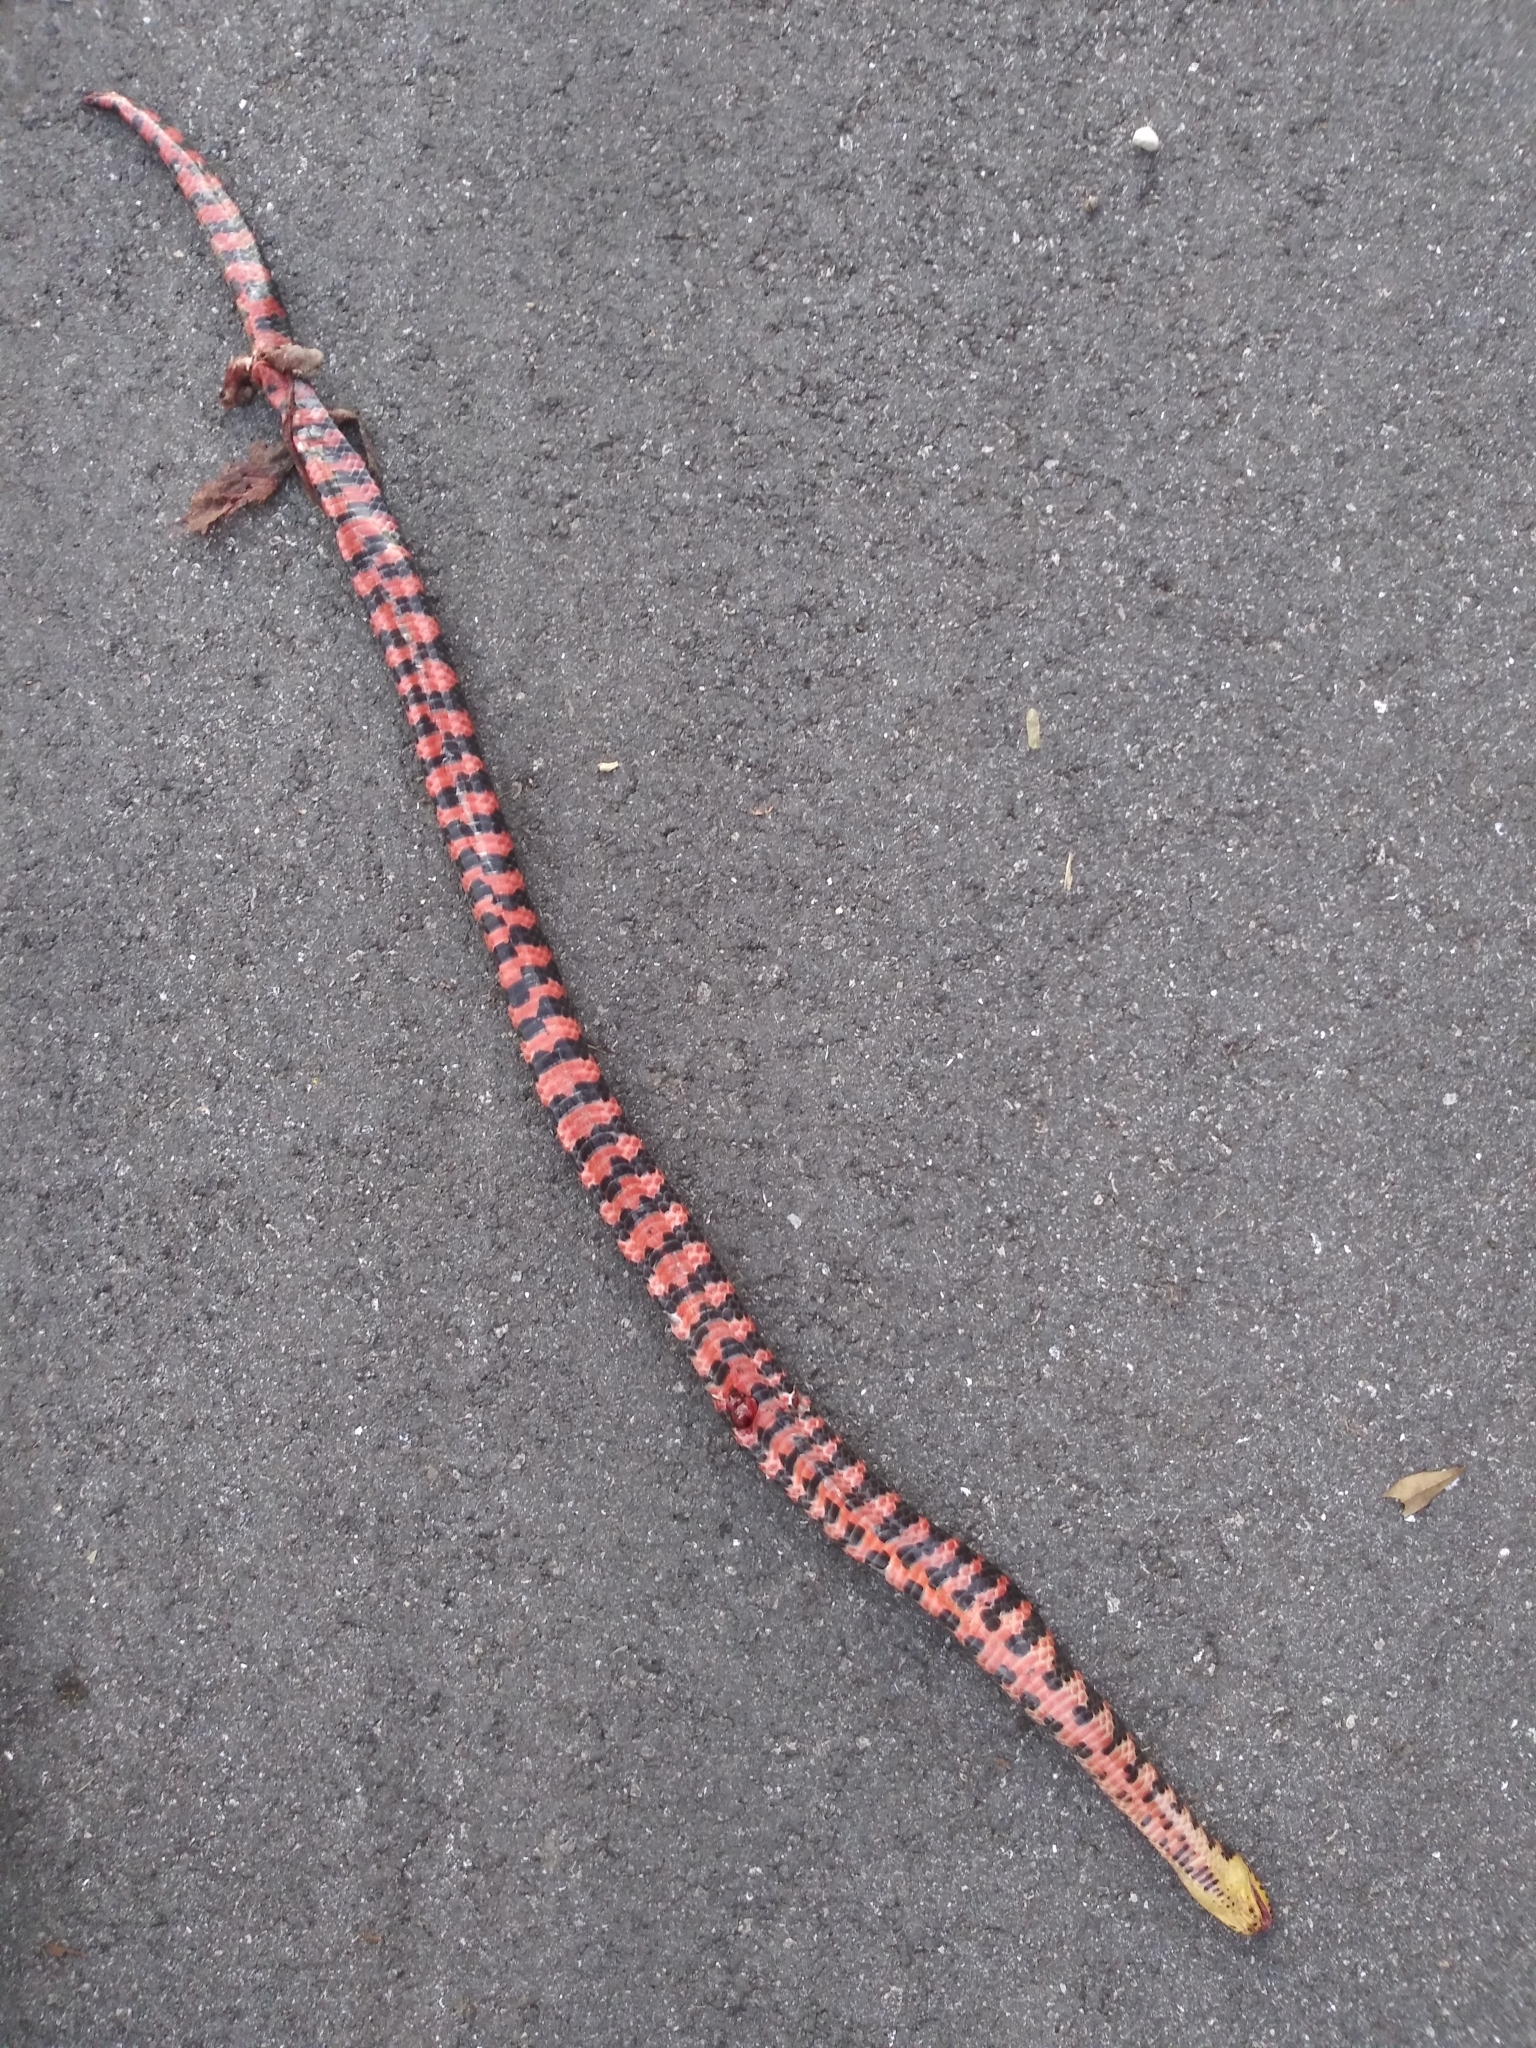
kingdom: Animalia
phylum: Chordata
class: Squamata
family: Colubridae
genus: Farancia
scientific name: Farancia abacura
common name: Mud snake
